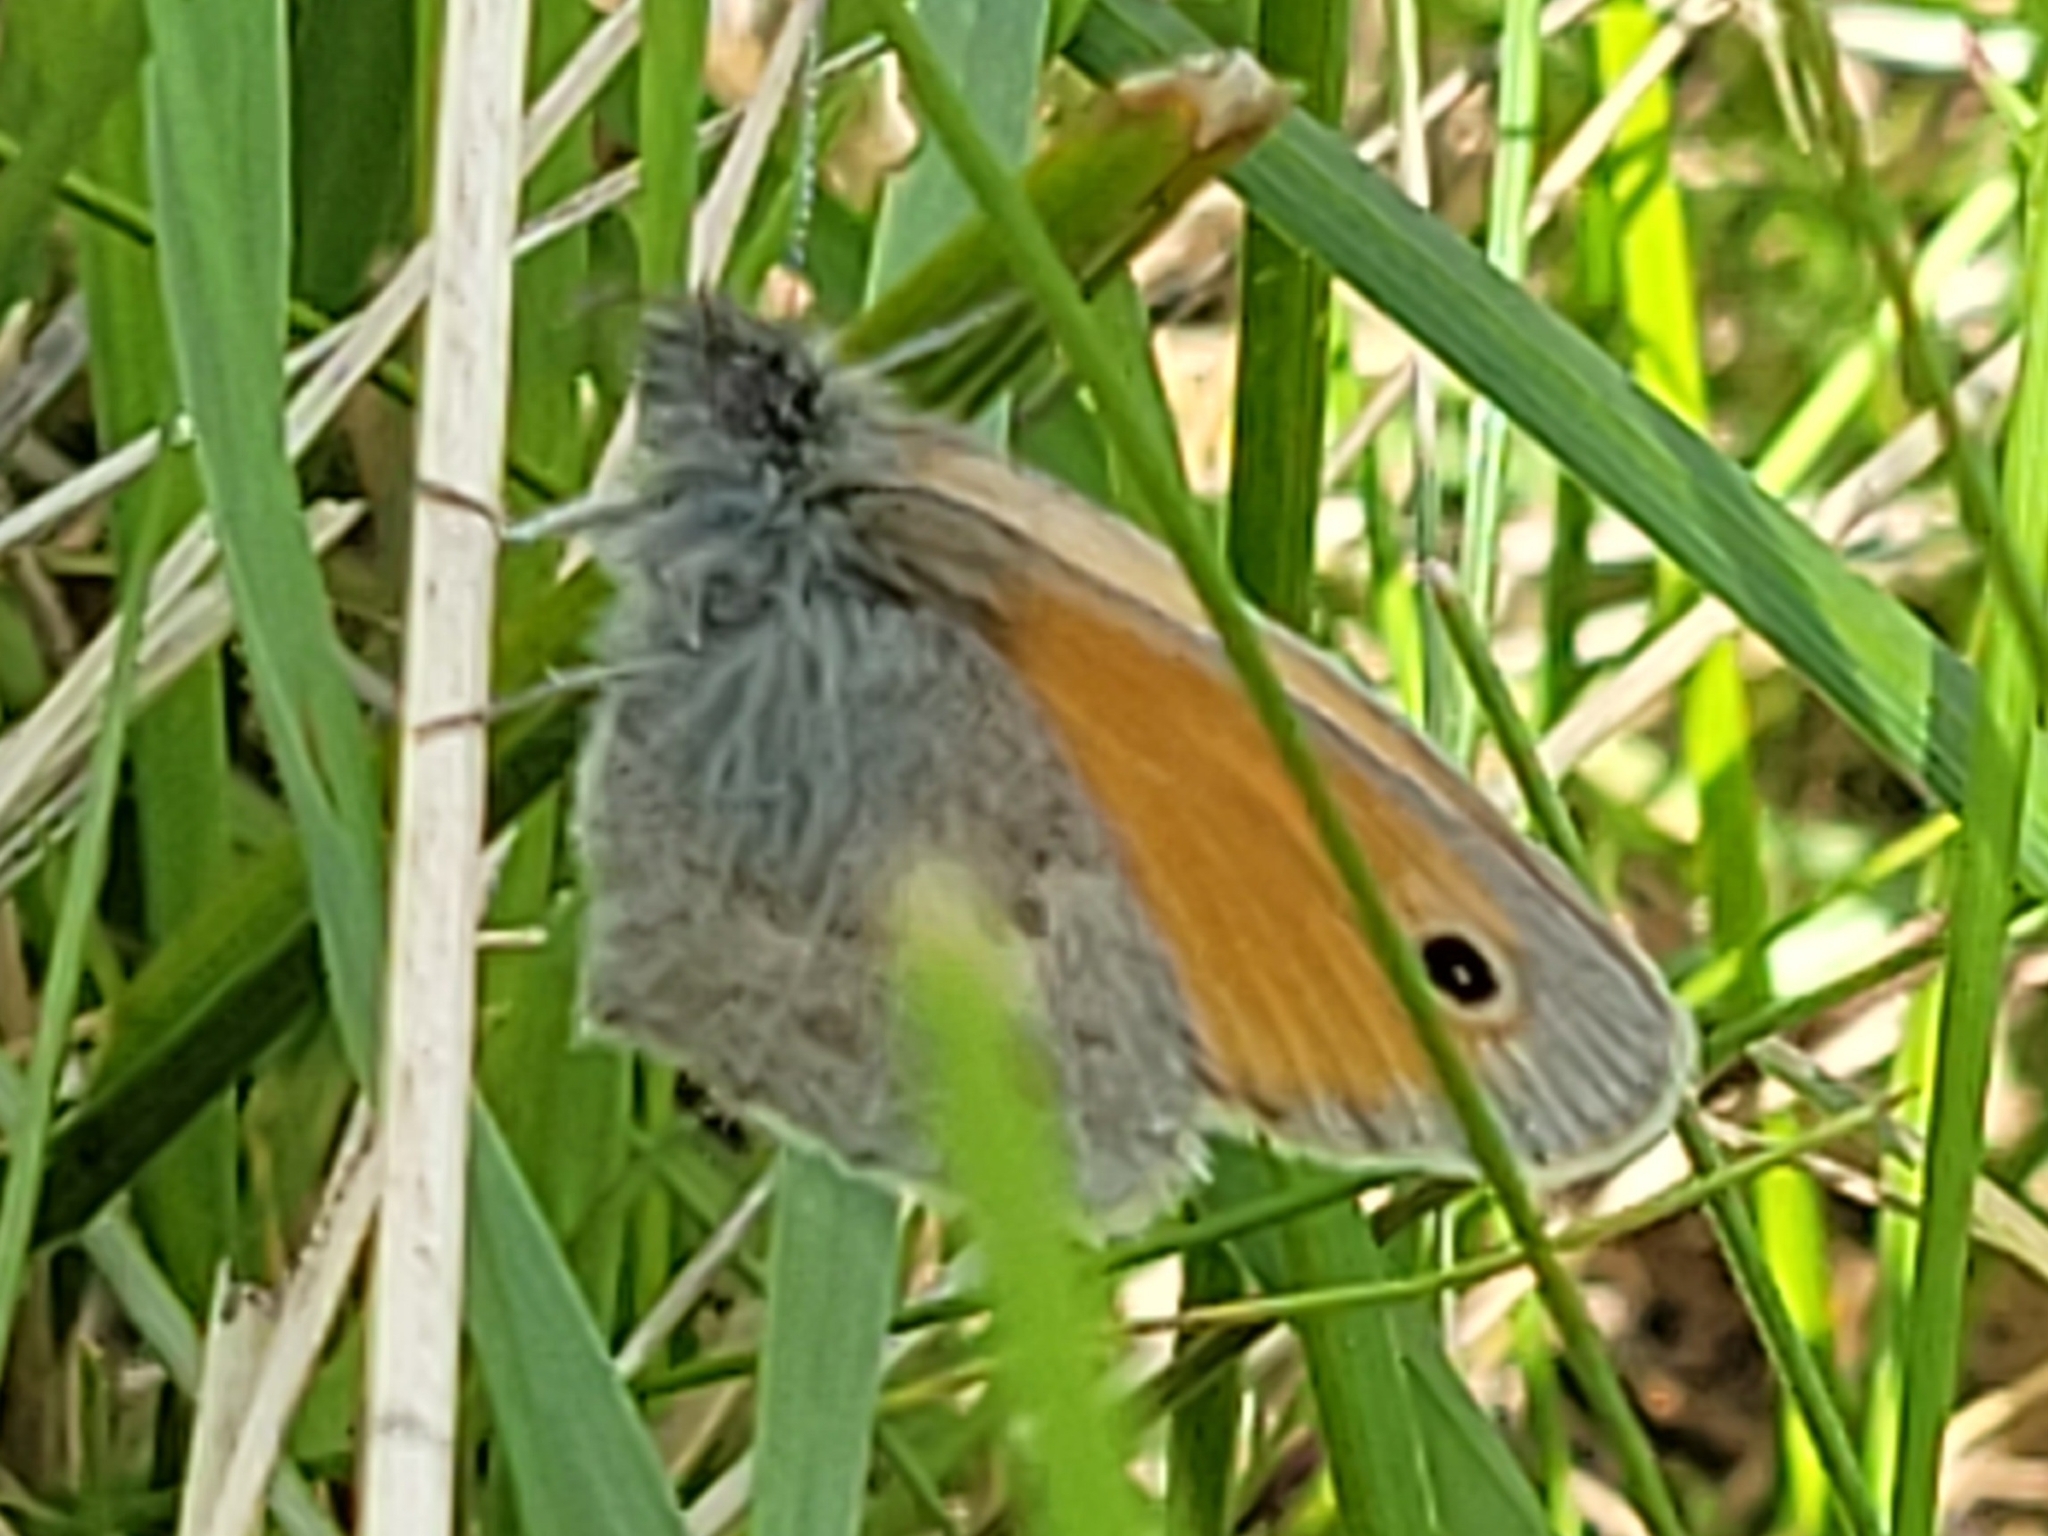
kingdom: Animalia
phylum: Arthropoda
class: Insecta
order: Lepidoptera
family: Nymphalidae
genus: Coenonympha
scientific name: Coenonympha pamphilus
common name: Small heath
